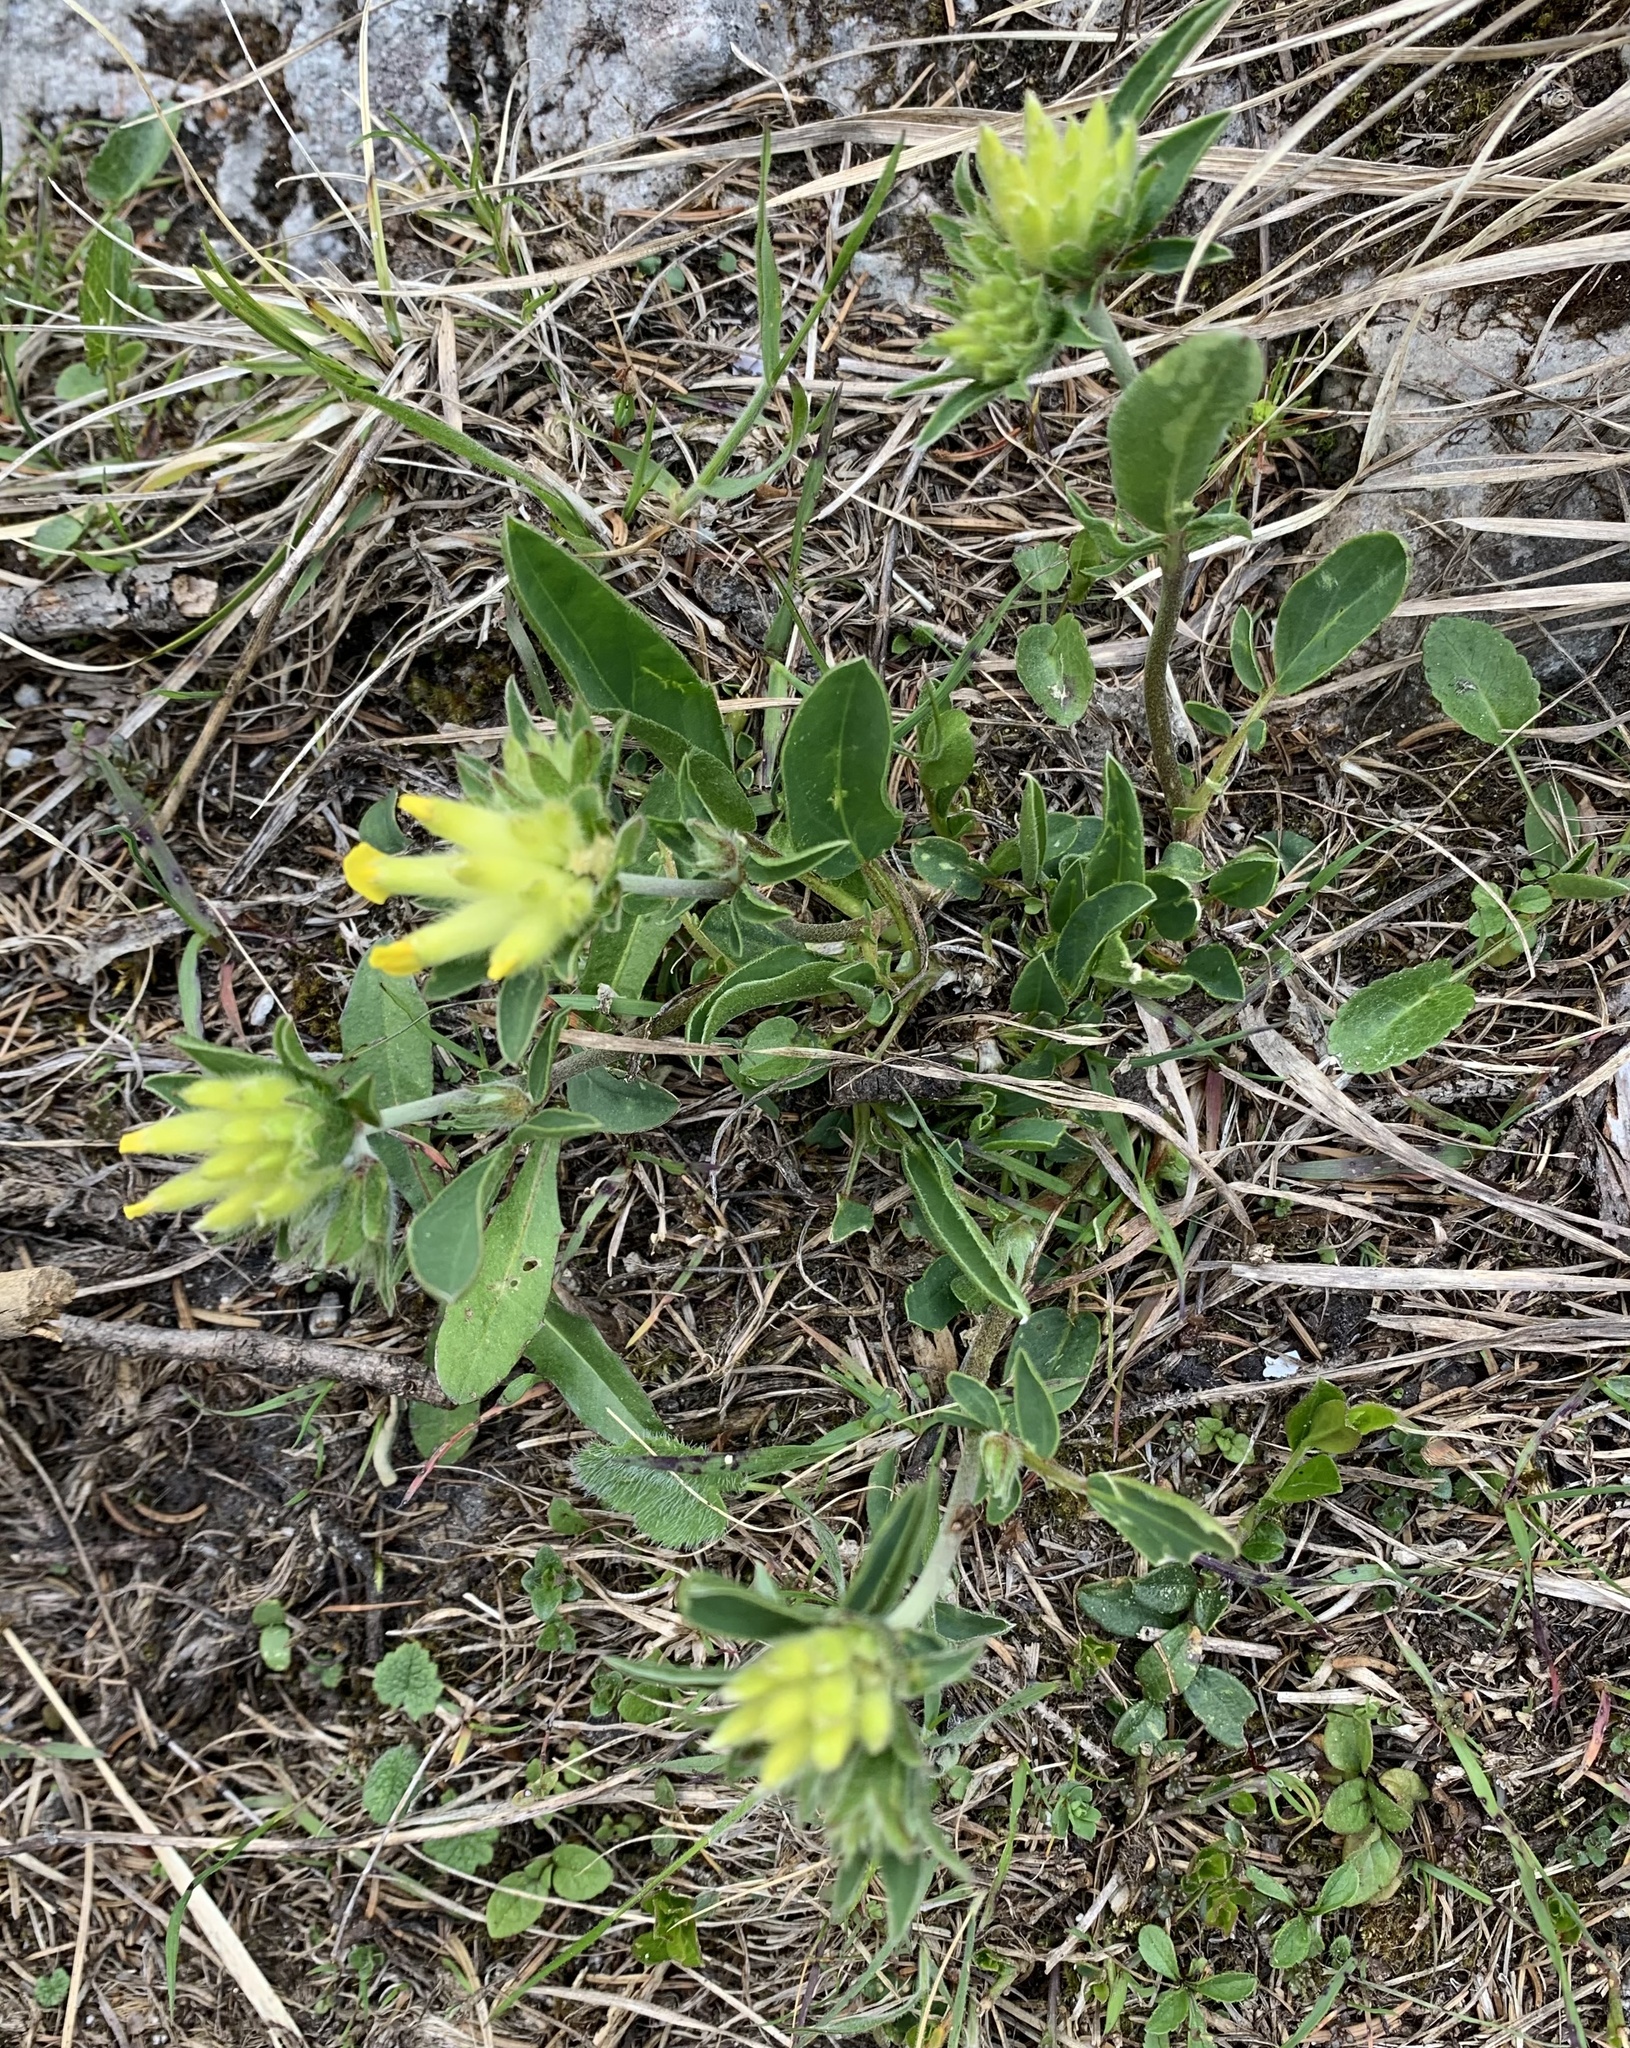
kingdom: Plantae
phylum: Tracheophyta
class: Magnoliopsida
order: Fabales
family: Fabaceae
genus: Anthyllis
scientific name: Anthyllis vulneraria
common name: Kidney vetch
